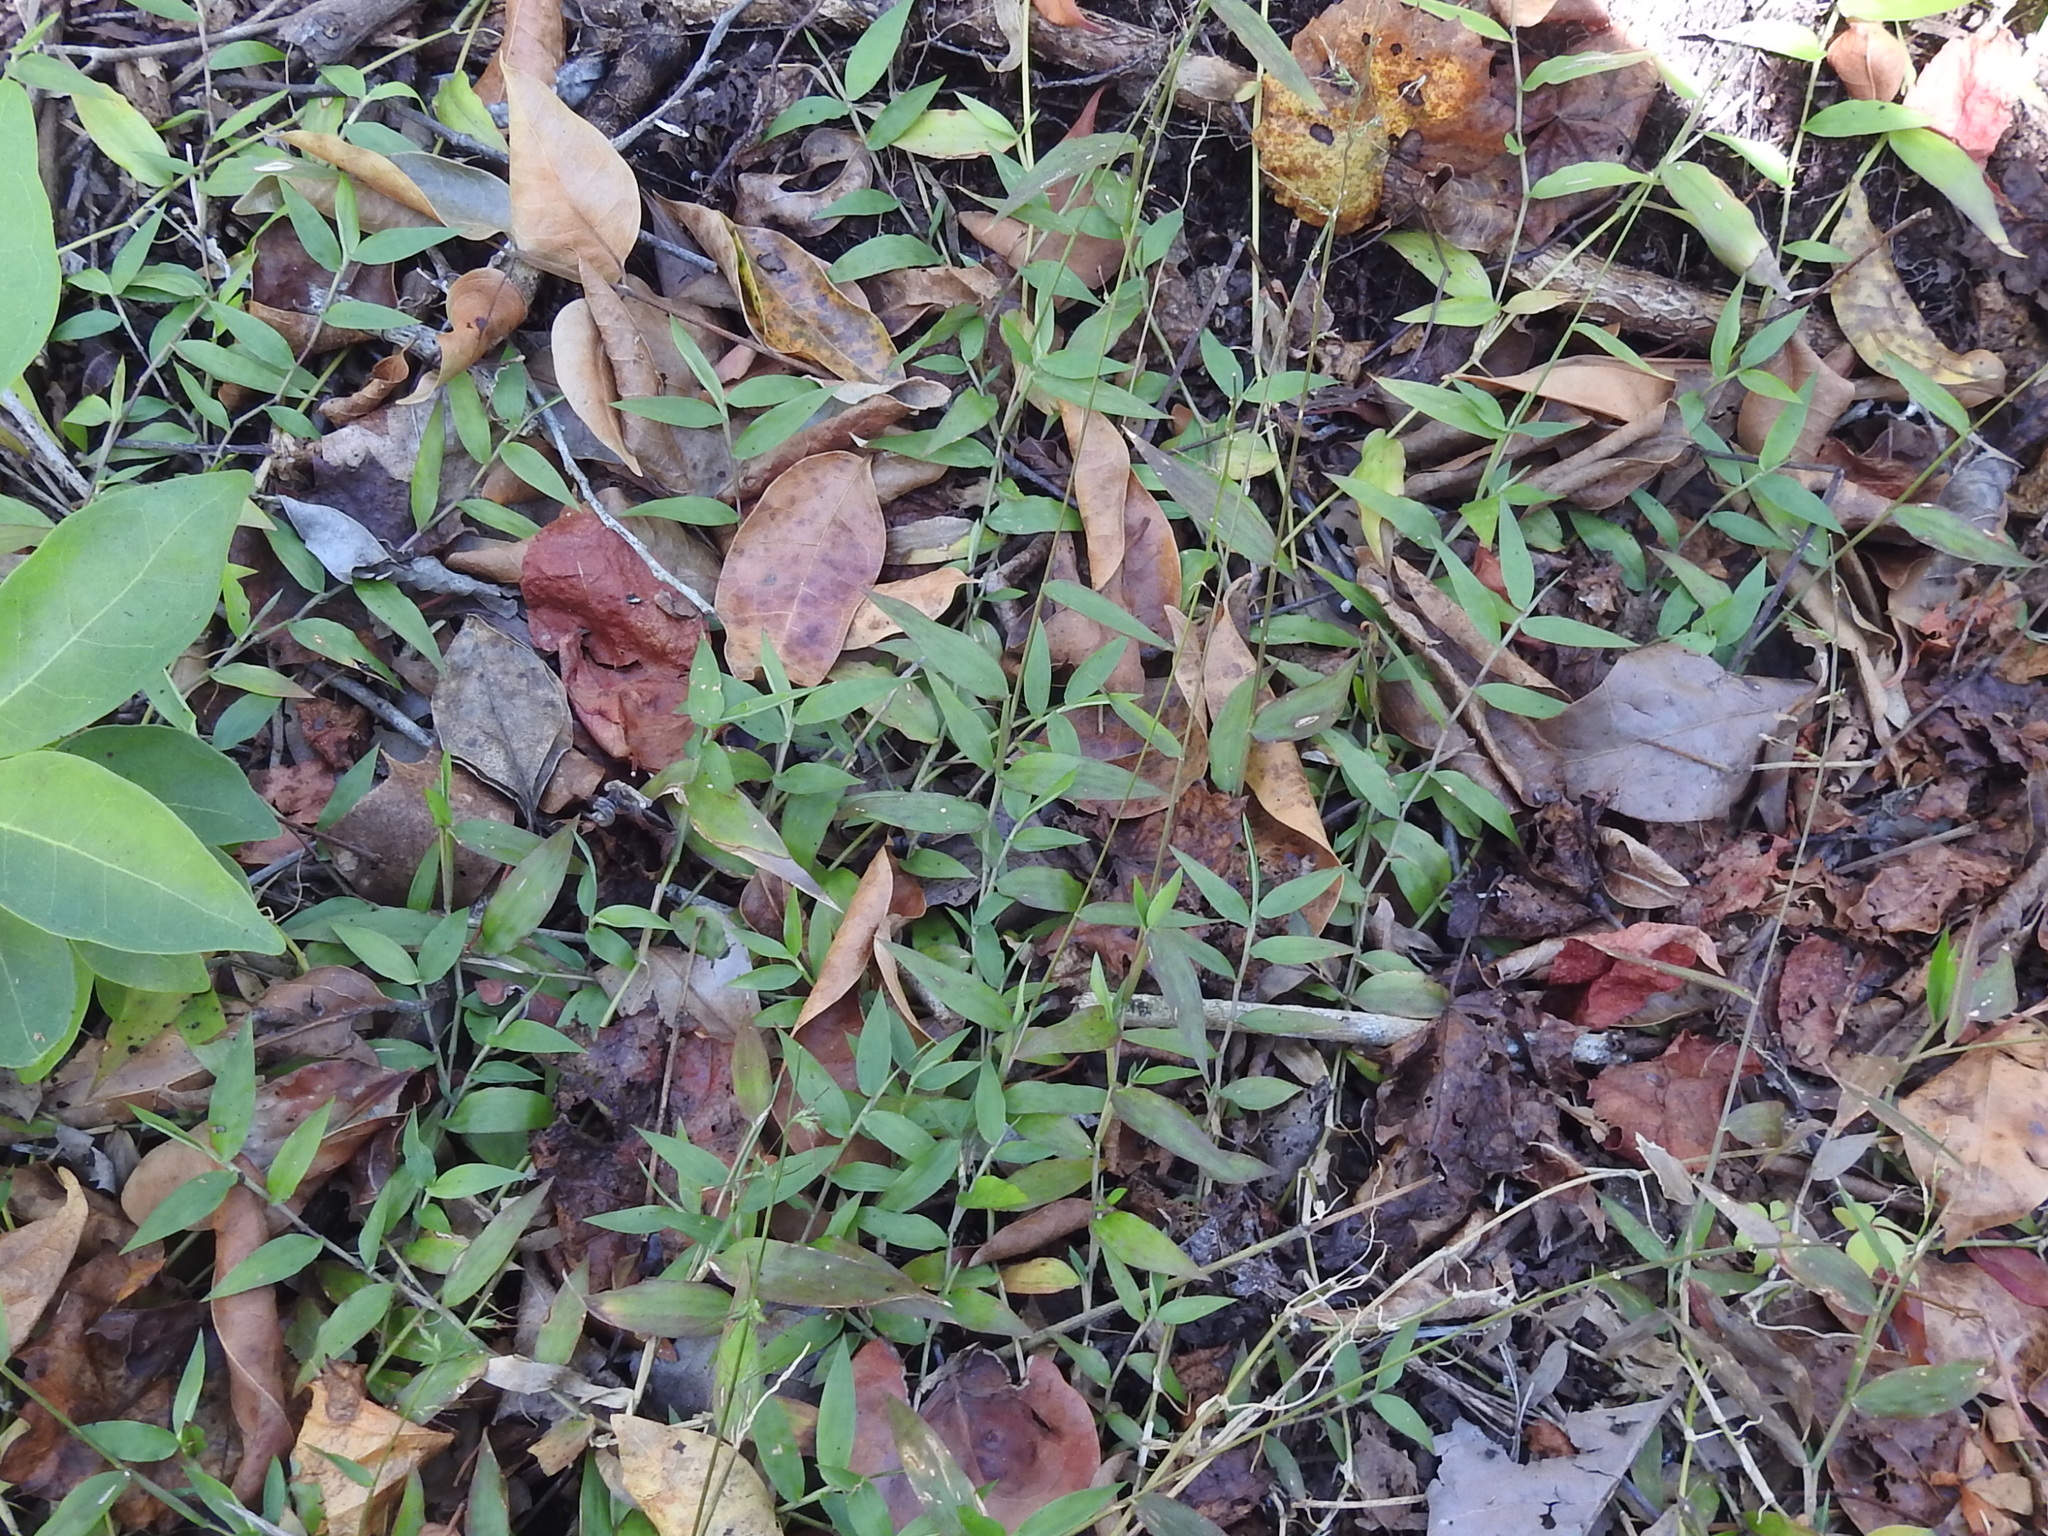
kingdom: Plantae
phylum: Tracheophyta
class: Liliopsida
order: Poales
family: Poaceae
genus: Oplismenus
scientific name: Oplismenus hirtellus
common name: Basketgrass
